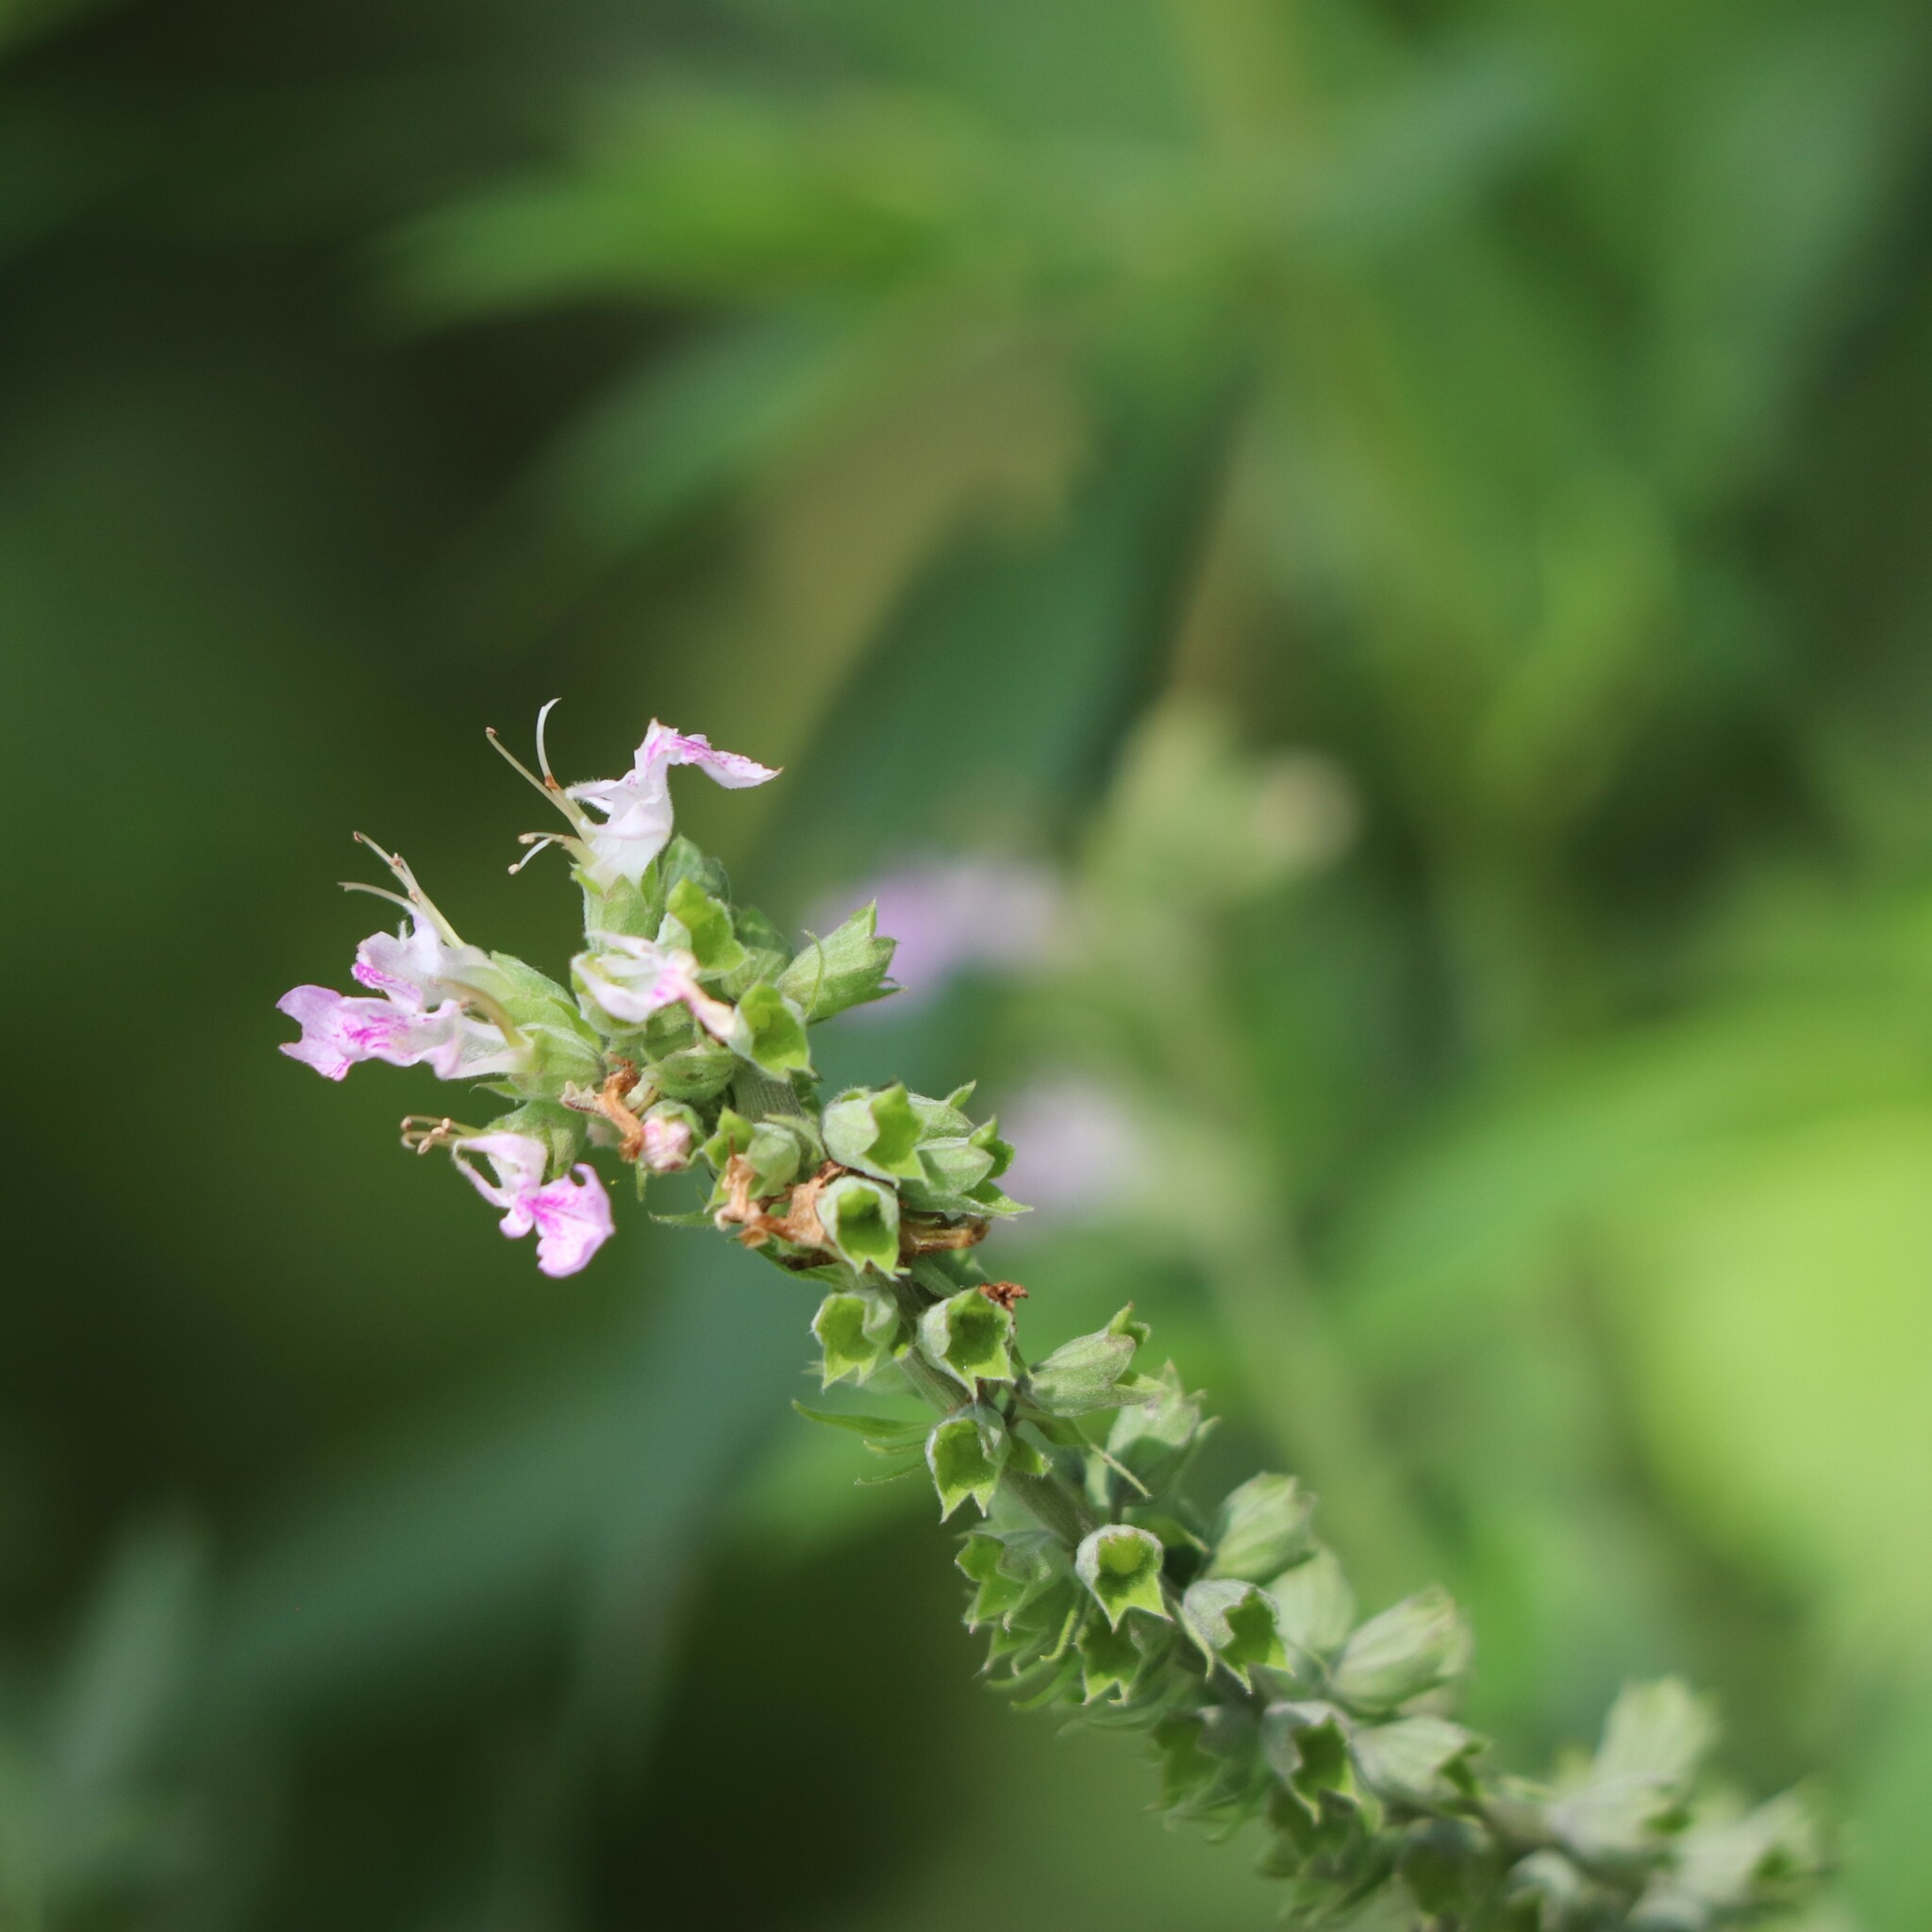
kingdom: Plantae
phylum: Tracheophyta
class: Magnoliopsida
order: Lamiales
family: Lamiaceae
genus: Teucrium
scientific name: Teucrium canadense
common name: American germander
